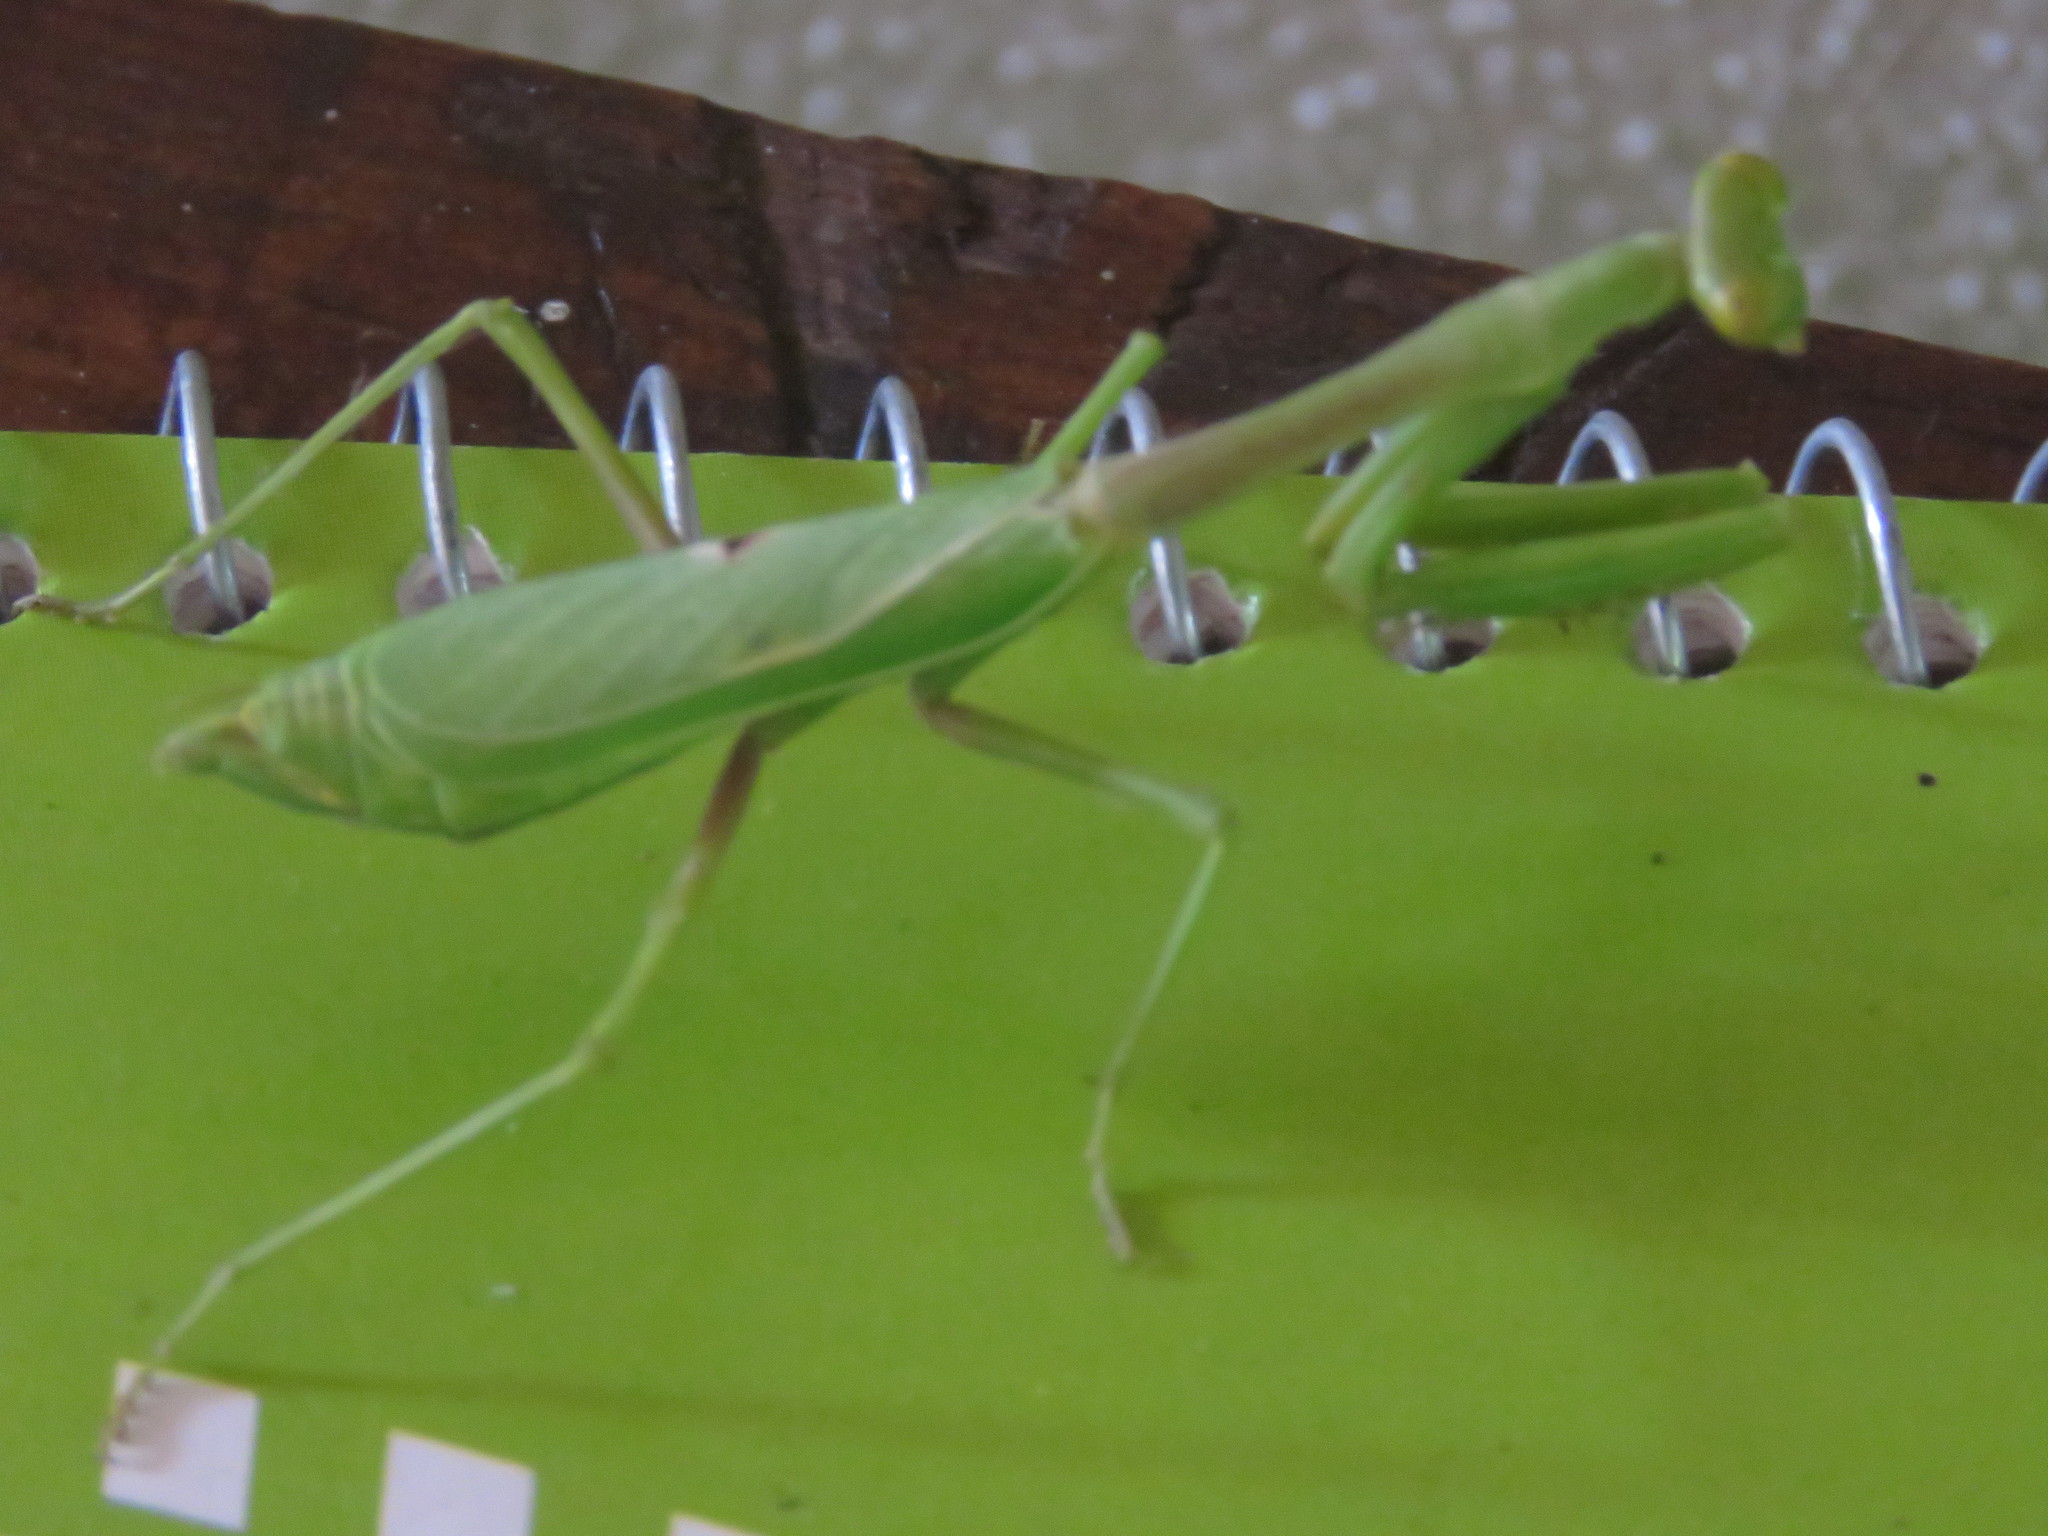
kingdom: Animalia
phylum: Arthropoda
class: Insecta
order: Mantodea
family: Mantidae
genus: Stagmomantis
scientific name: Stagmomantis carolina
